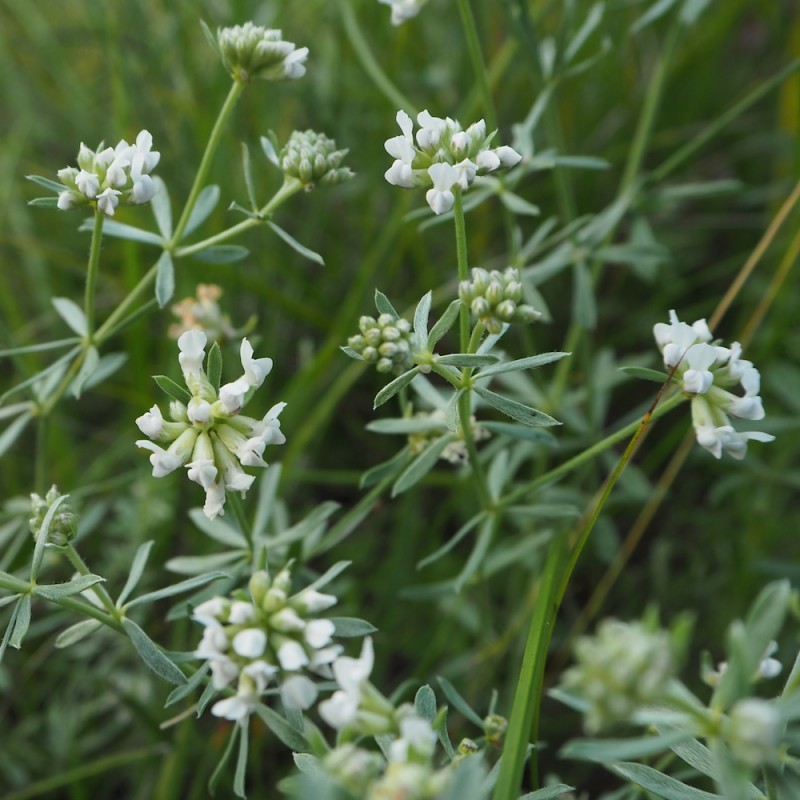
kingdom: Plantae
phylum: Tracheophyta
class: Magnoliopsida
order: Fabales
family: Fabaceae
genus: Lotus
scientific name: Lotus germanicus
